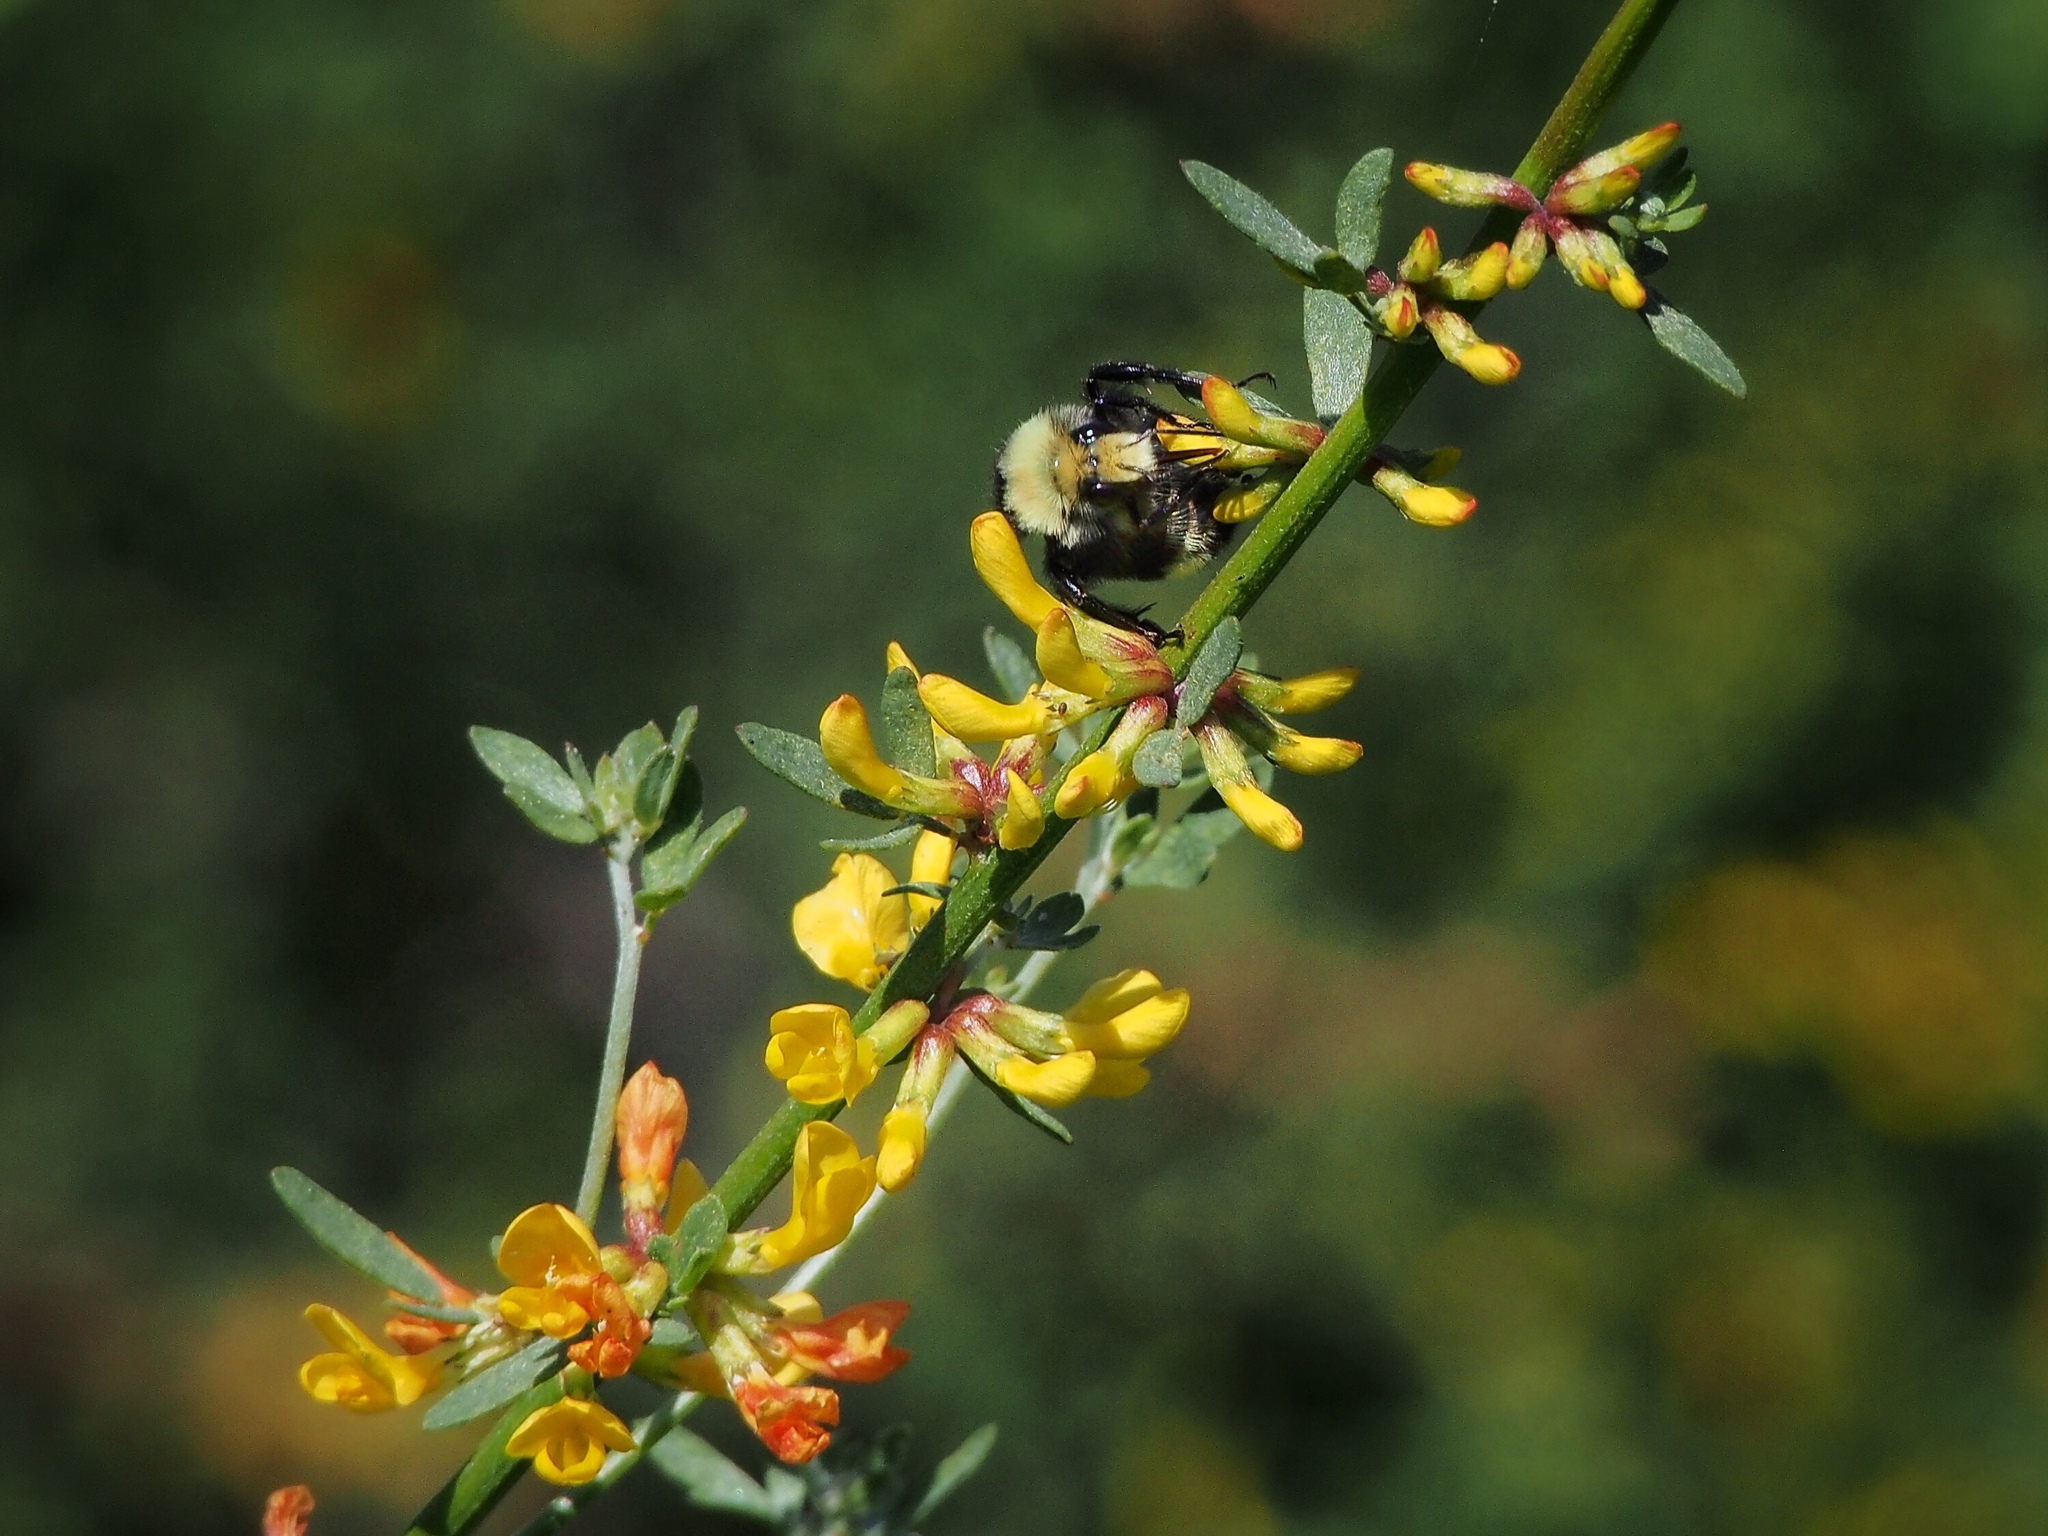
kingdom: Animalia
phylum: Arthropoda
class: Insecta
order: Hymenoptera
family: Apidae
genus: Bombus
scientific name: Bombus vosnesenskii
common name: Vosnesensky bumble bee
